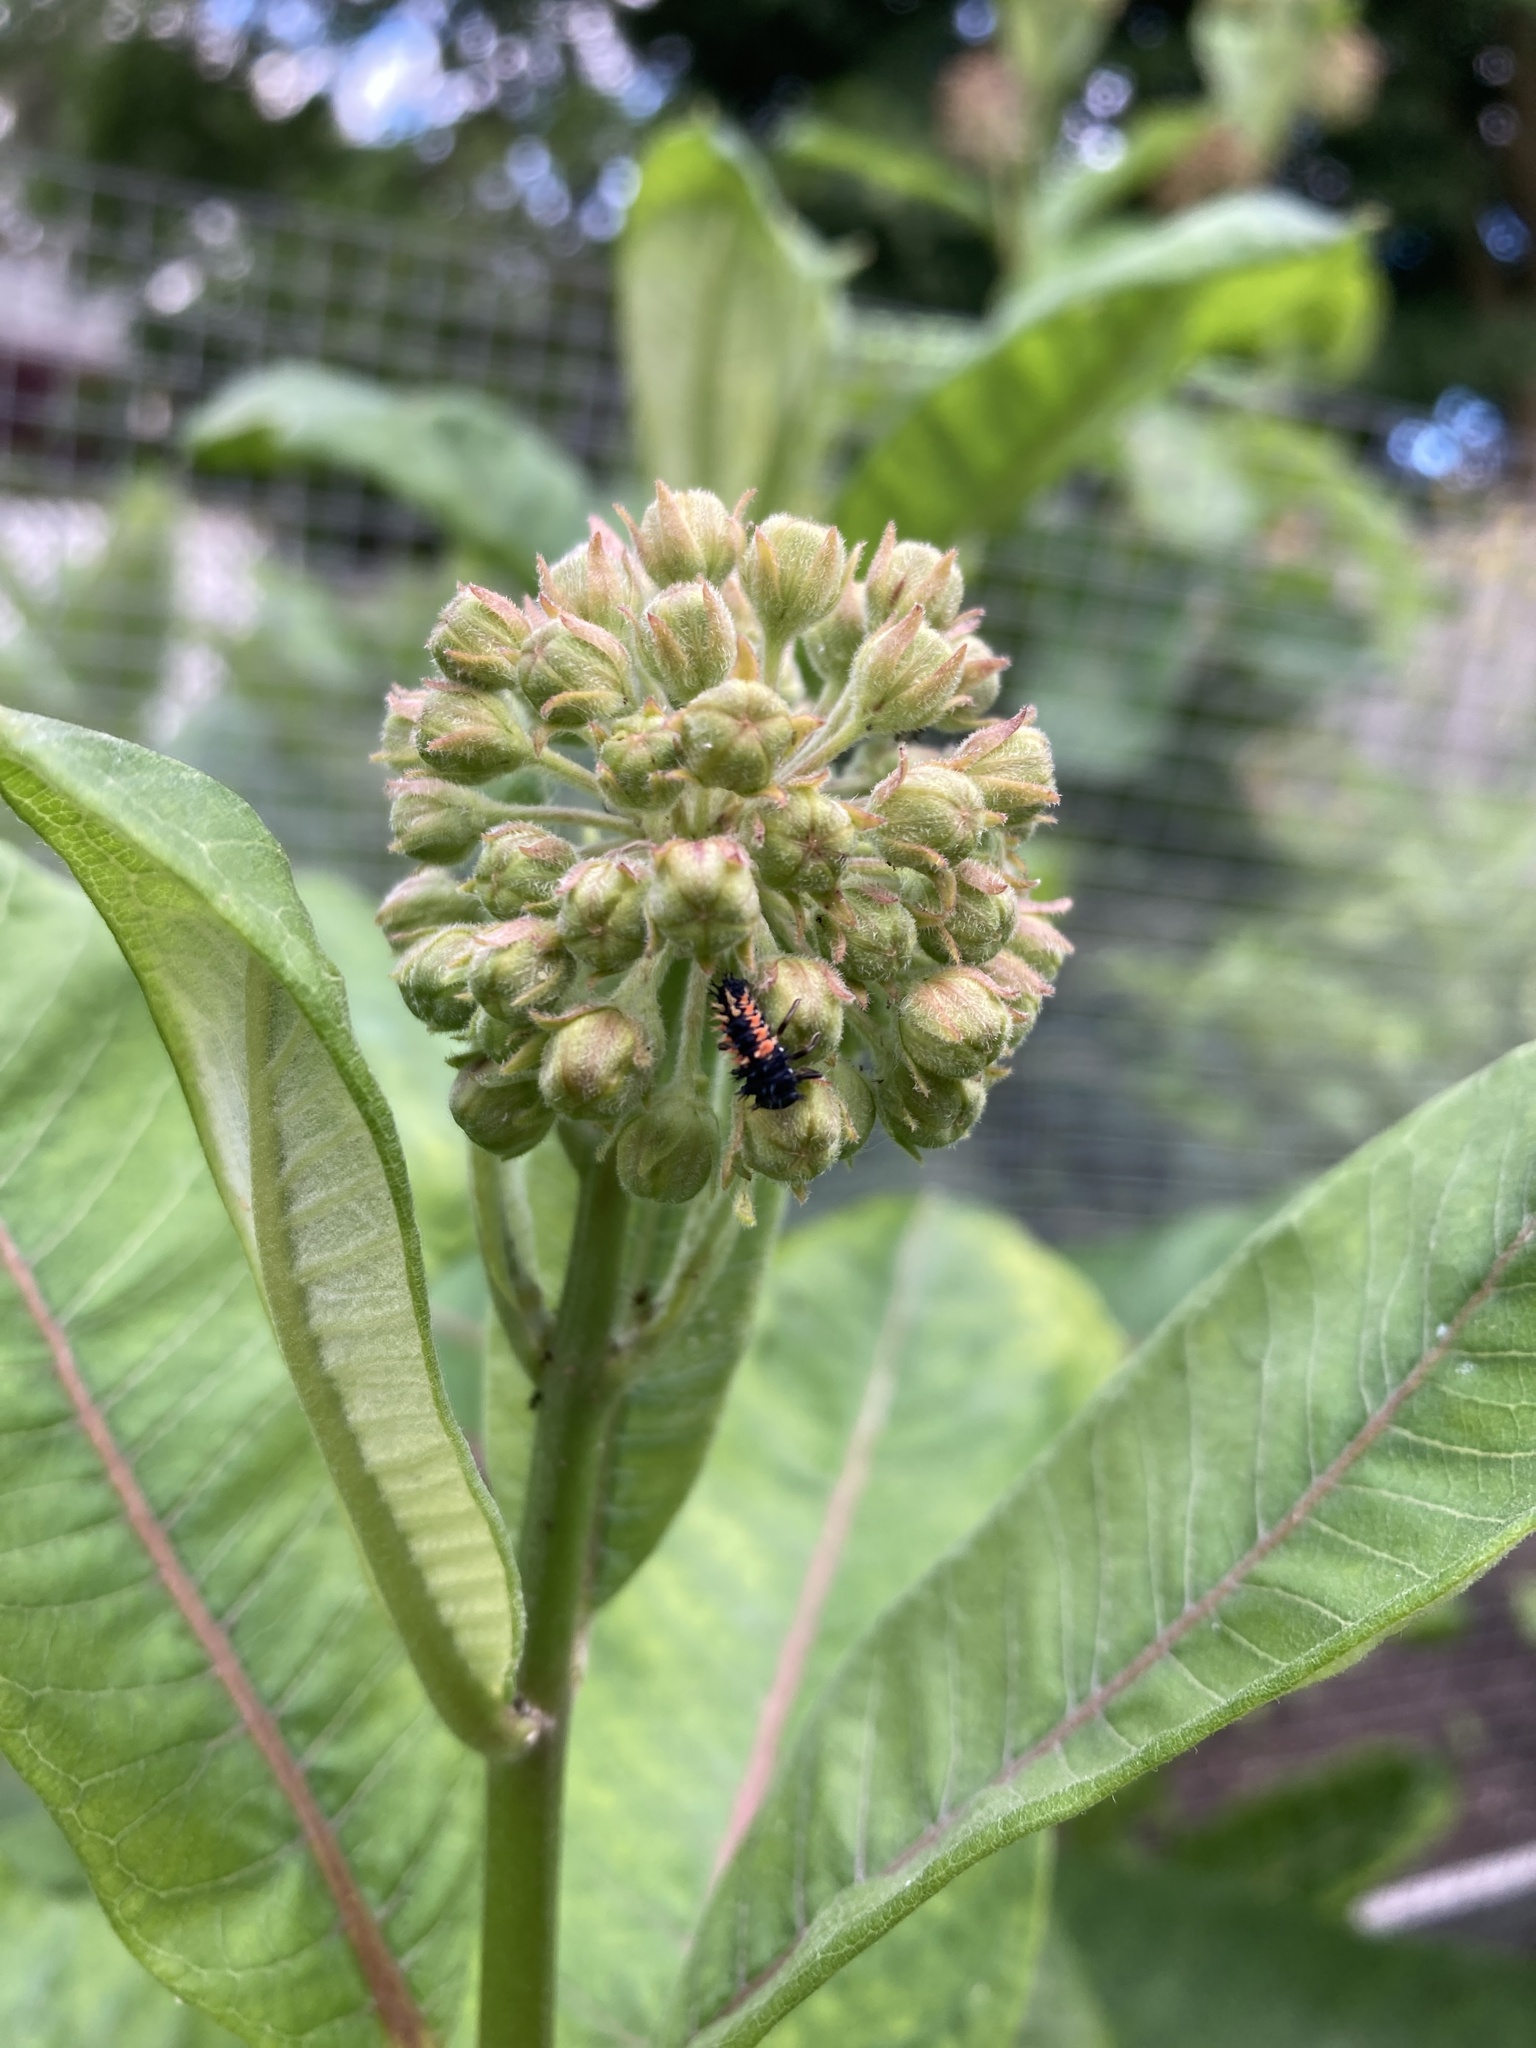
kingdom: Animalia
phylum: Arthropoda
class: Insecta
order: Coleoptera
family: Coccinellidae
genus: Harmonia
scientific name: Harmonia axyridis
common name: Harlequin ladybird
